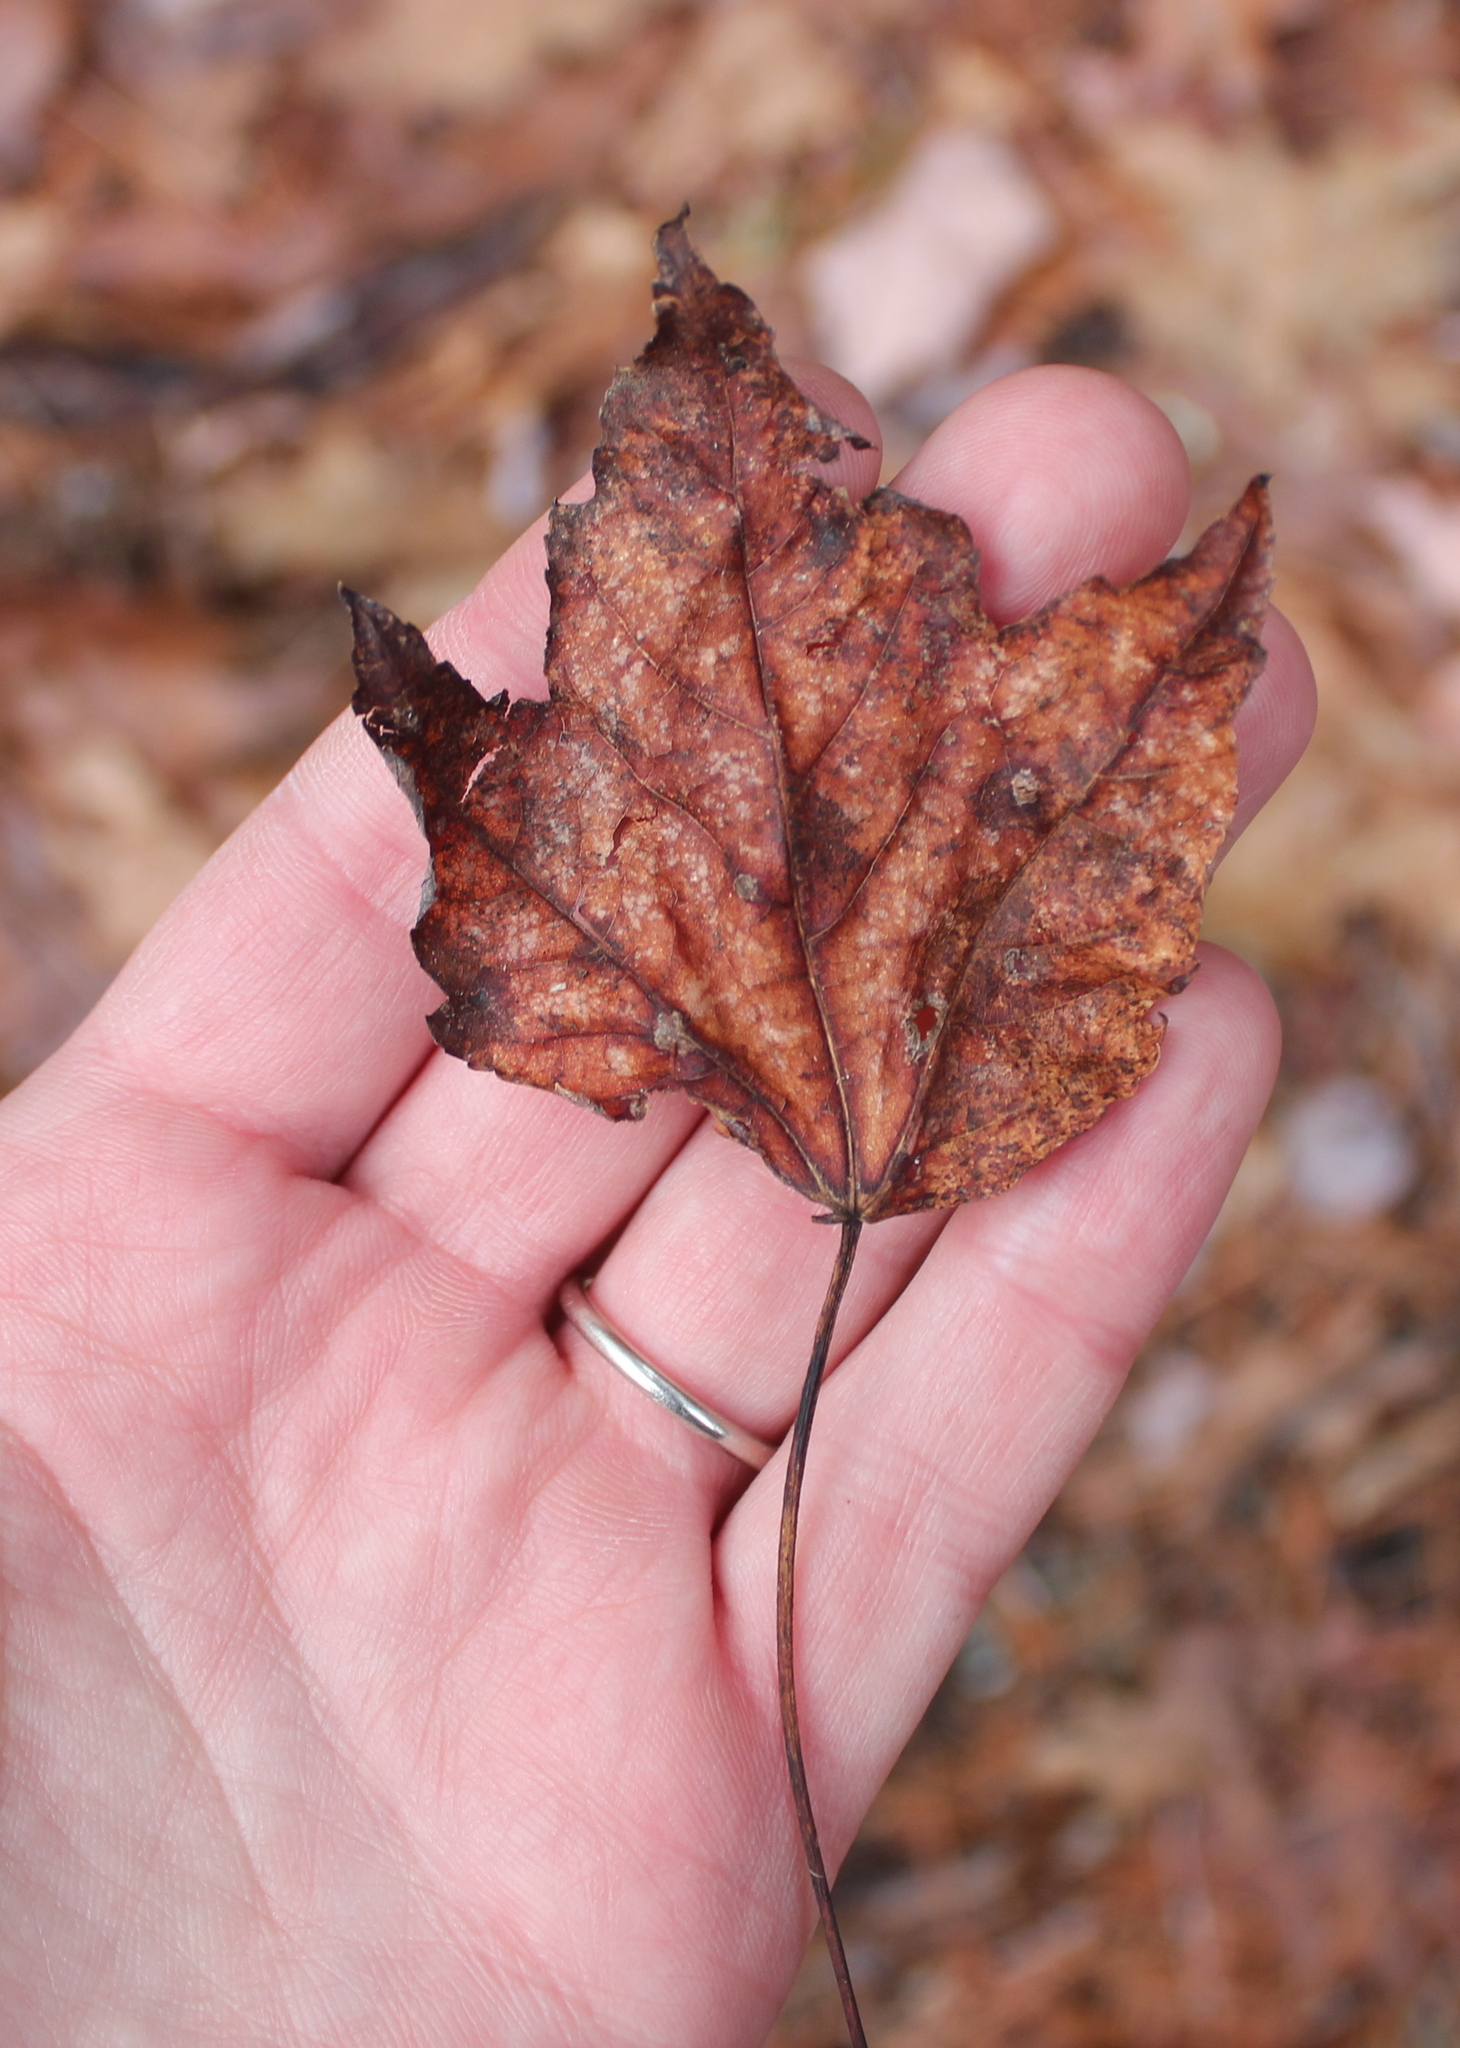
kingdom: Plantae
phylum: Tracheophyta
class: Magnoliopsida
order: Sapindales
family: Sapindaceae
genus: Acer
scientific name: Acer rubrum
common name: Red maple
